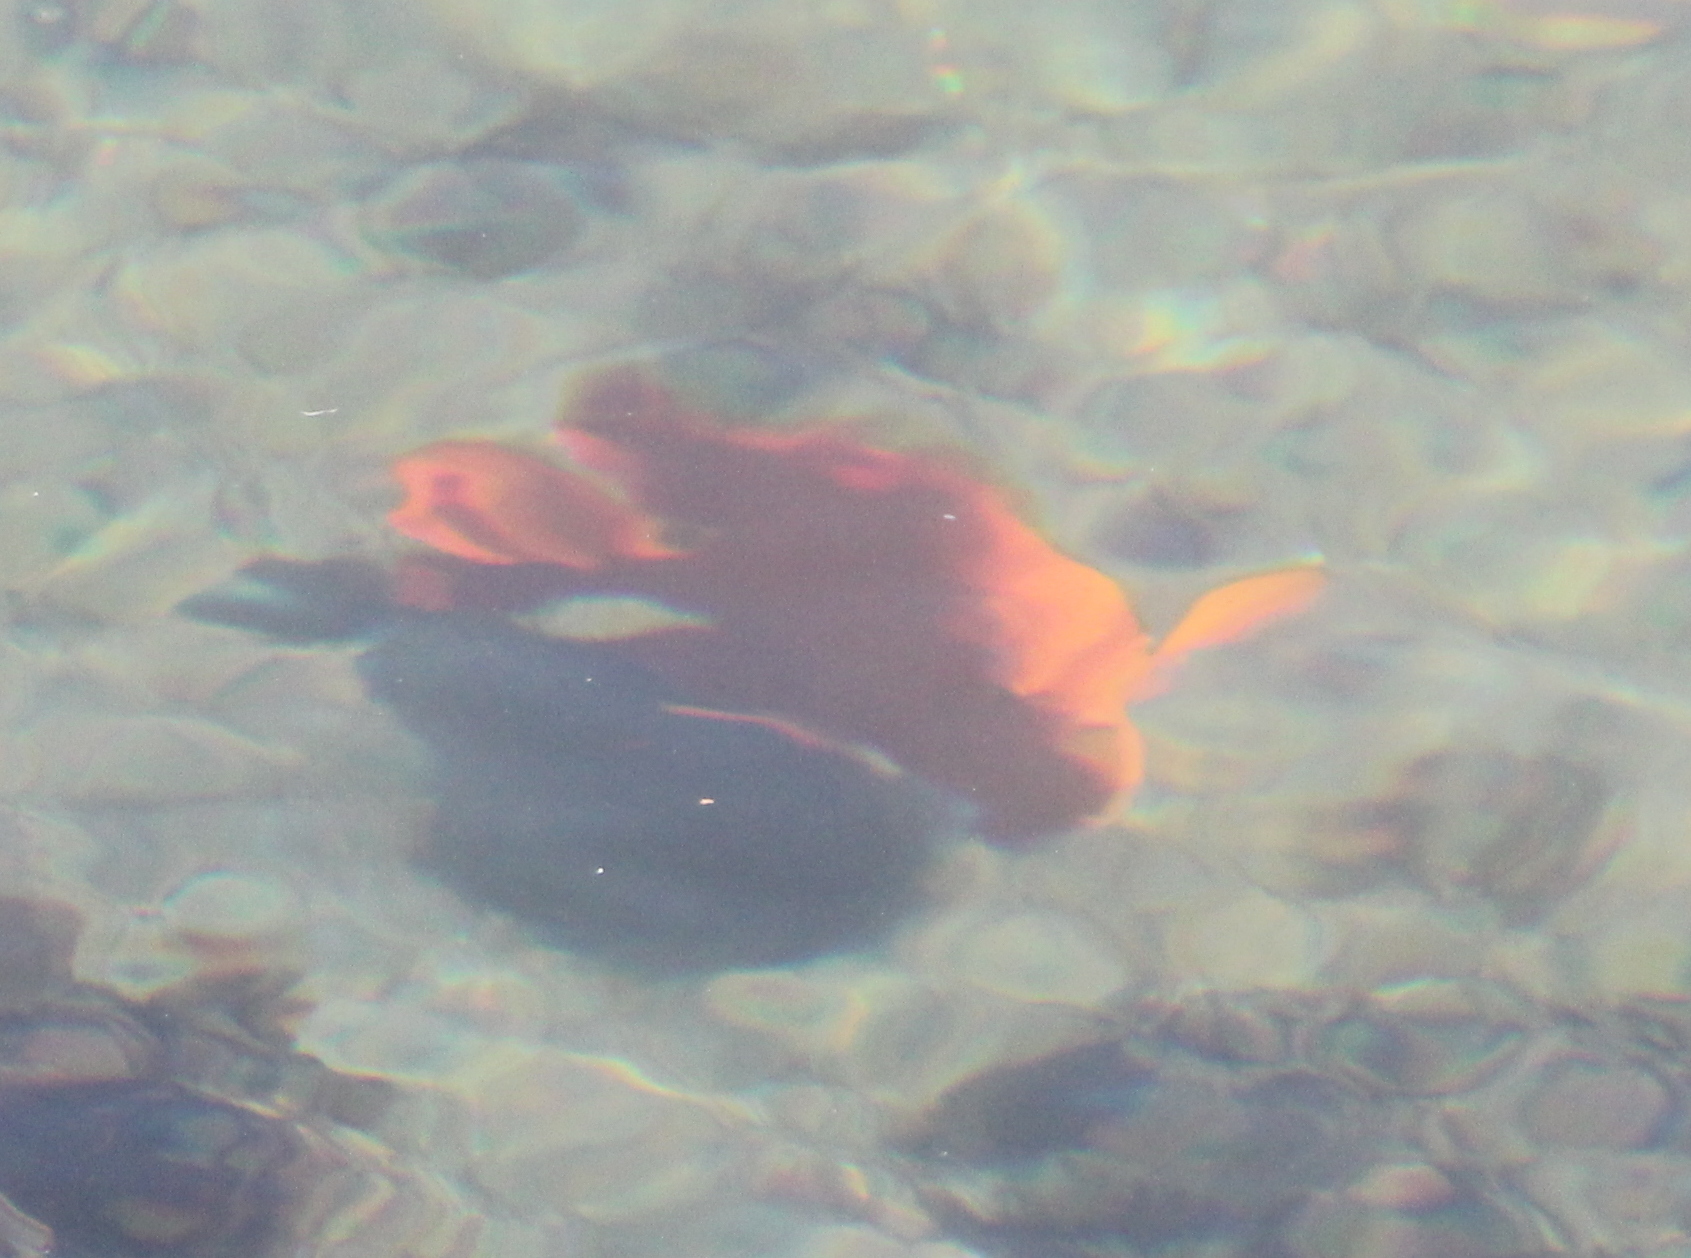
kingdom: Animalia
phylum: Chordata
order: Perciformes
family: Pomacentridae
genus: Hypsypops
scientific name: Hypsypops rubicundus
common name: Garibaldi
